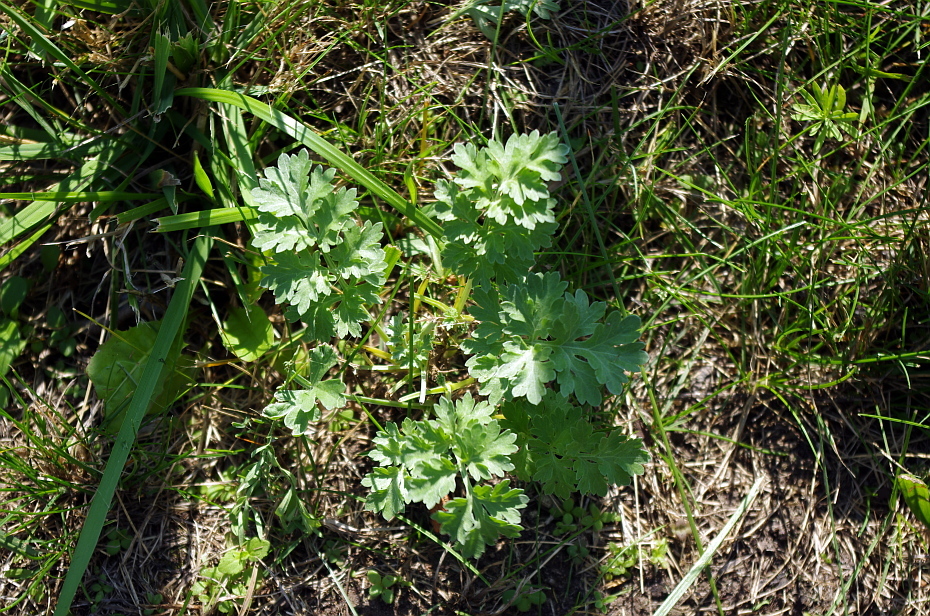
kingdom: Plantae
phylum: Tracheophyta
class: Magnoliopsida
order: Asterales
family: Asteraceae
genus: Artemisia
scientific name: Artemisia absinthium
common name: Wormwood
